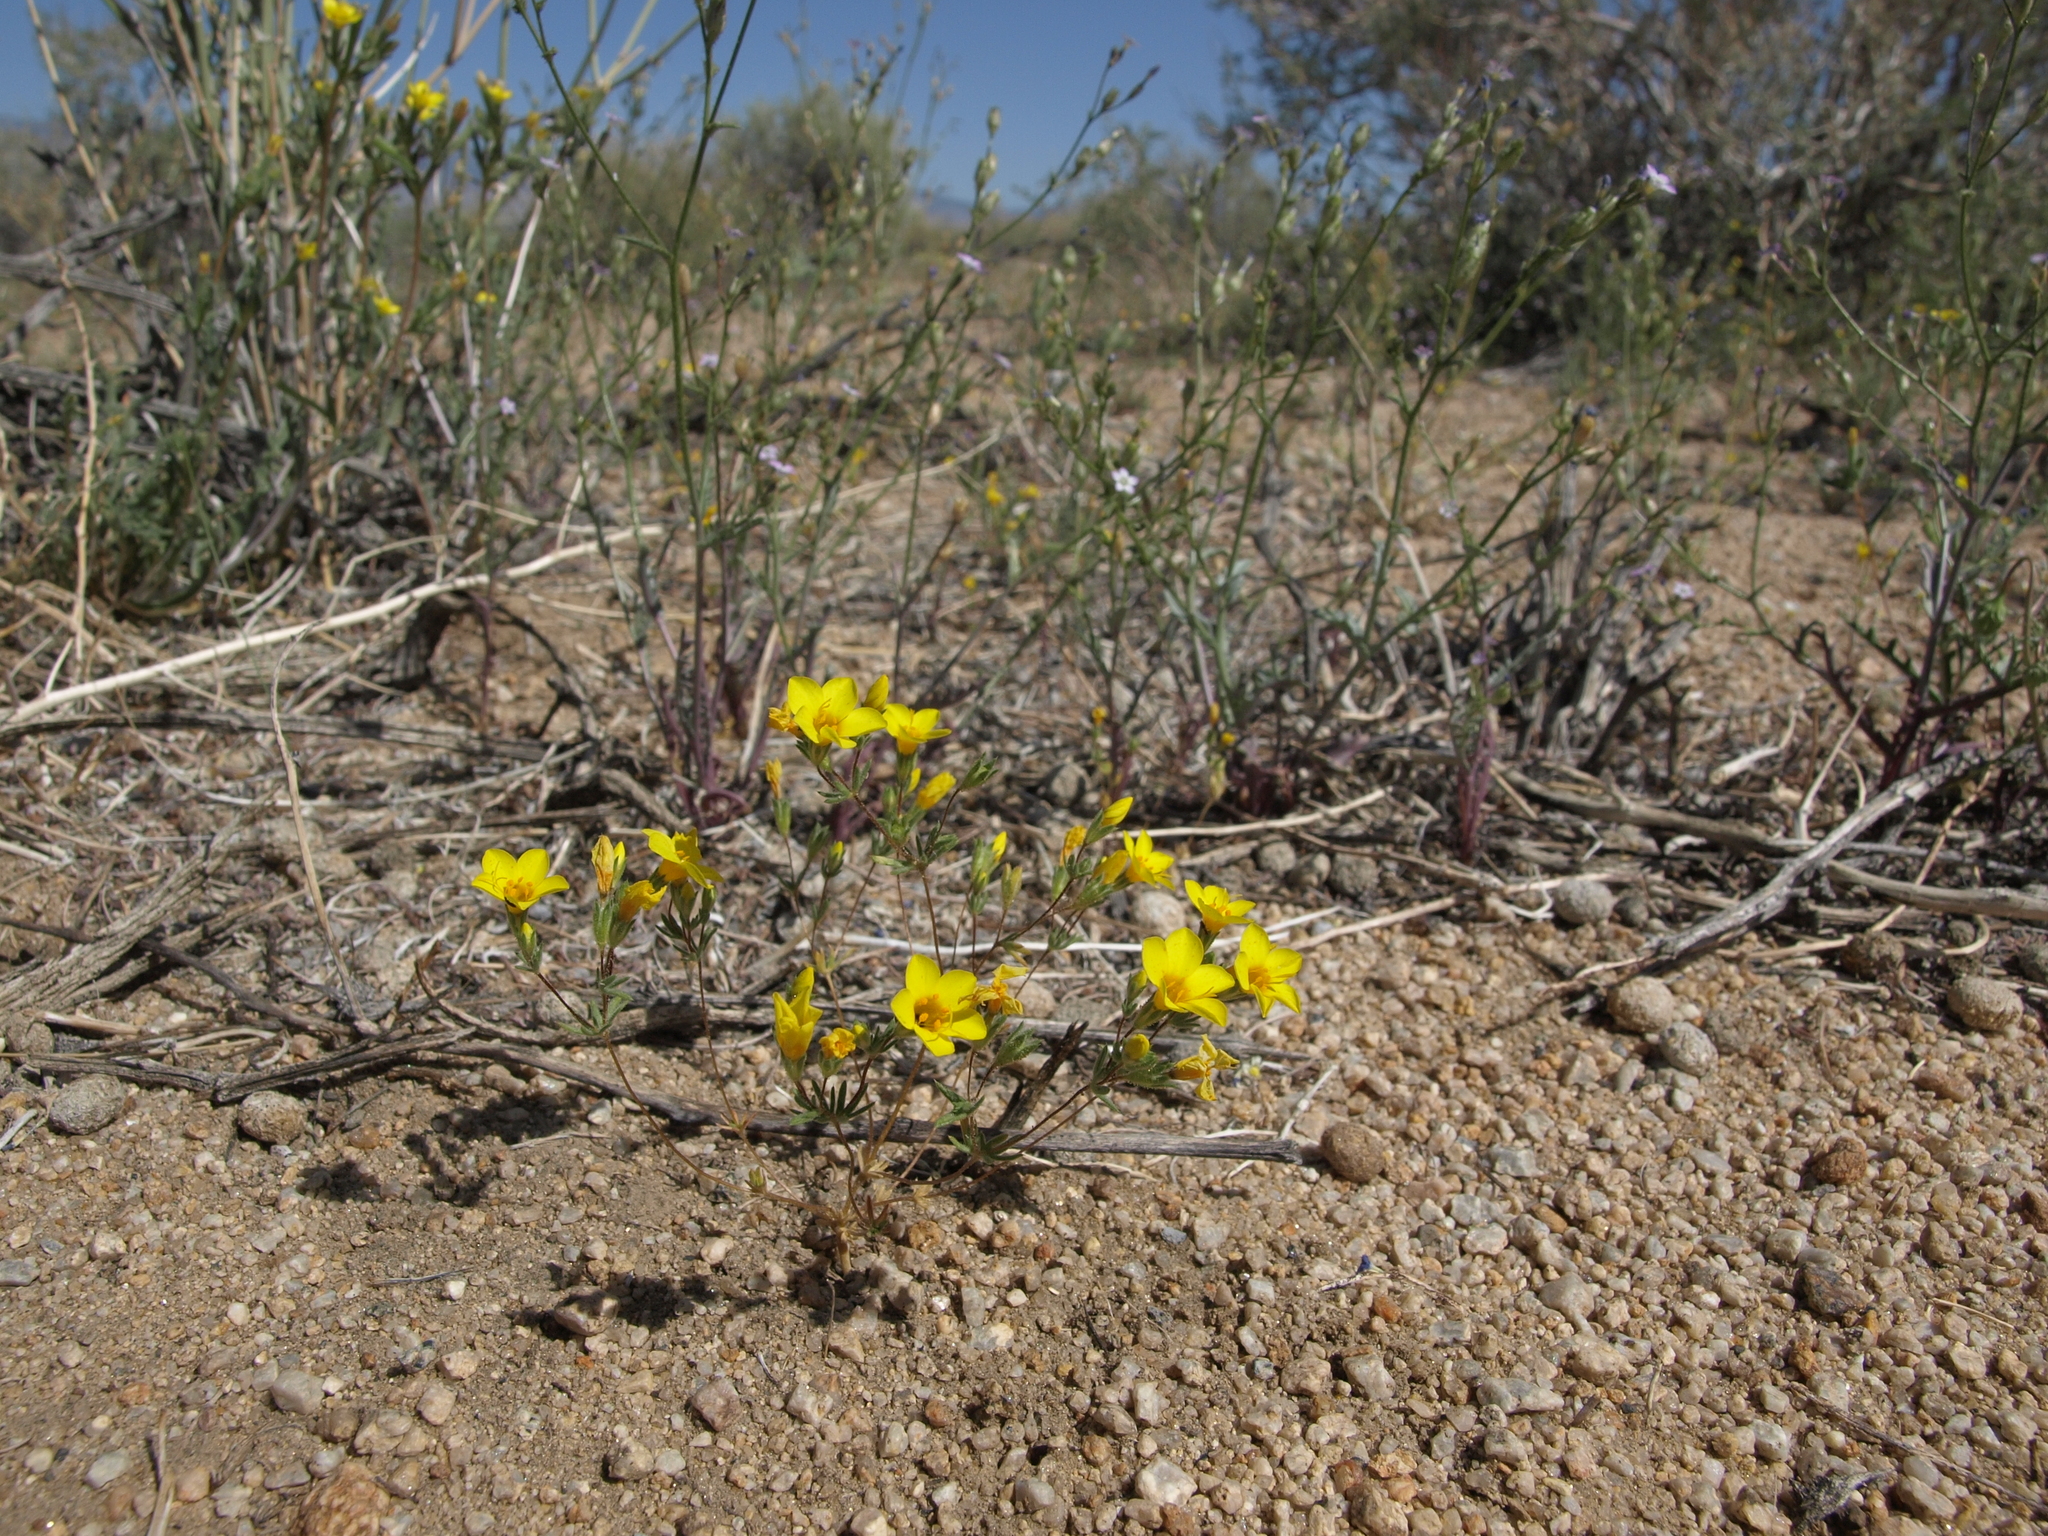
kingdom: Plantae
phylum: Tracheophyta
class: Magnoliopsida
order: Ericales
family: Polemoniaceae
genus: Leptosiphon
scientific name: Leptosiphon chrysanthus
